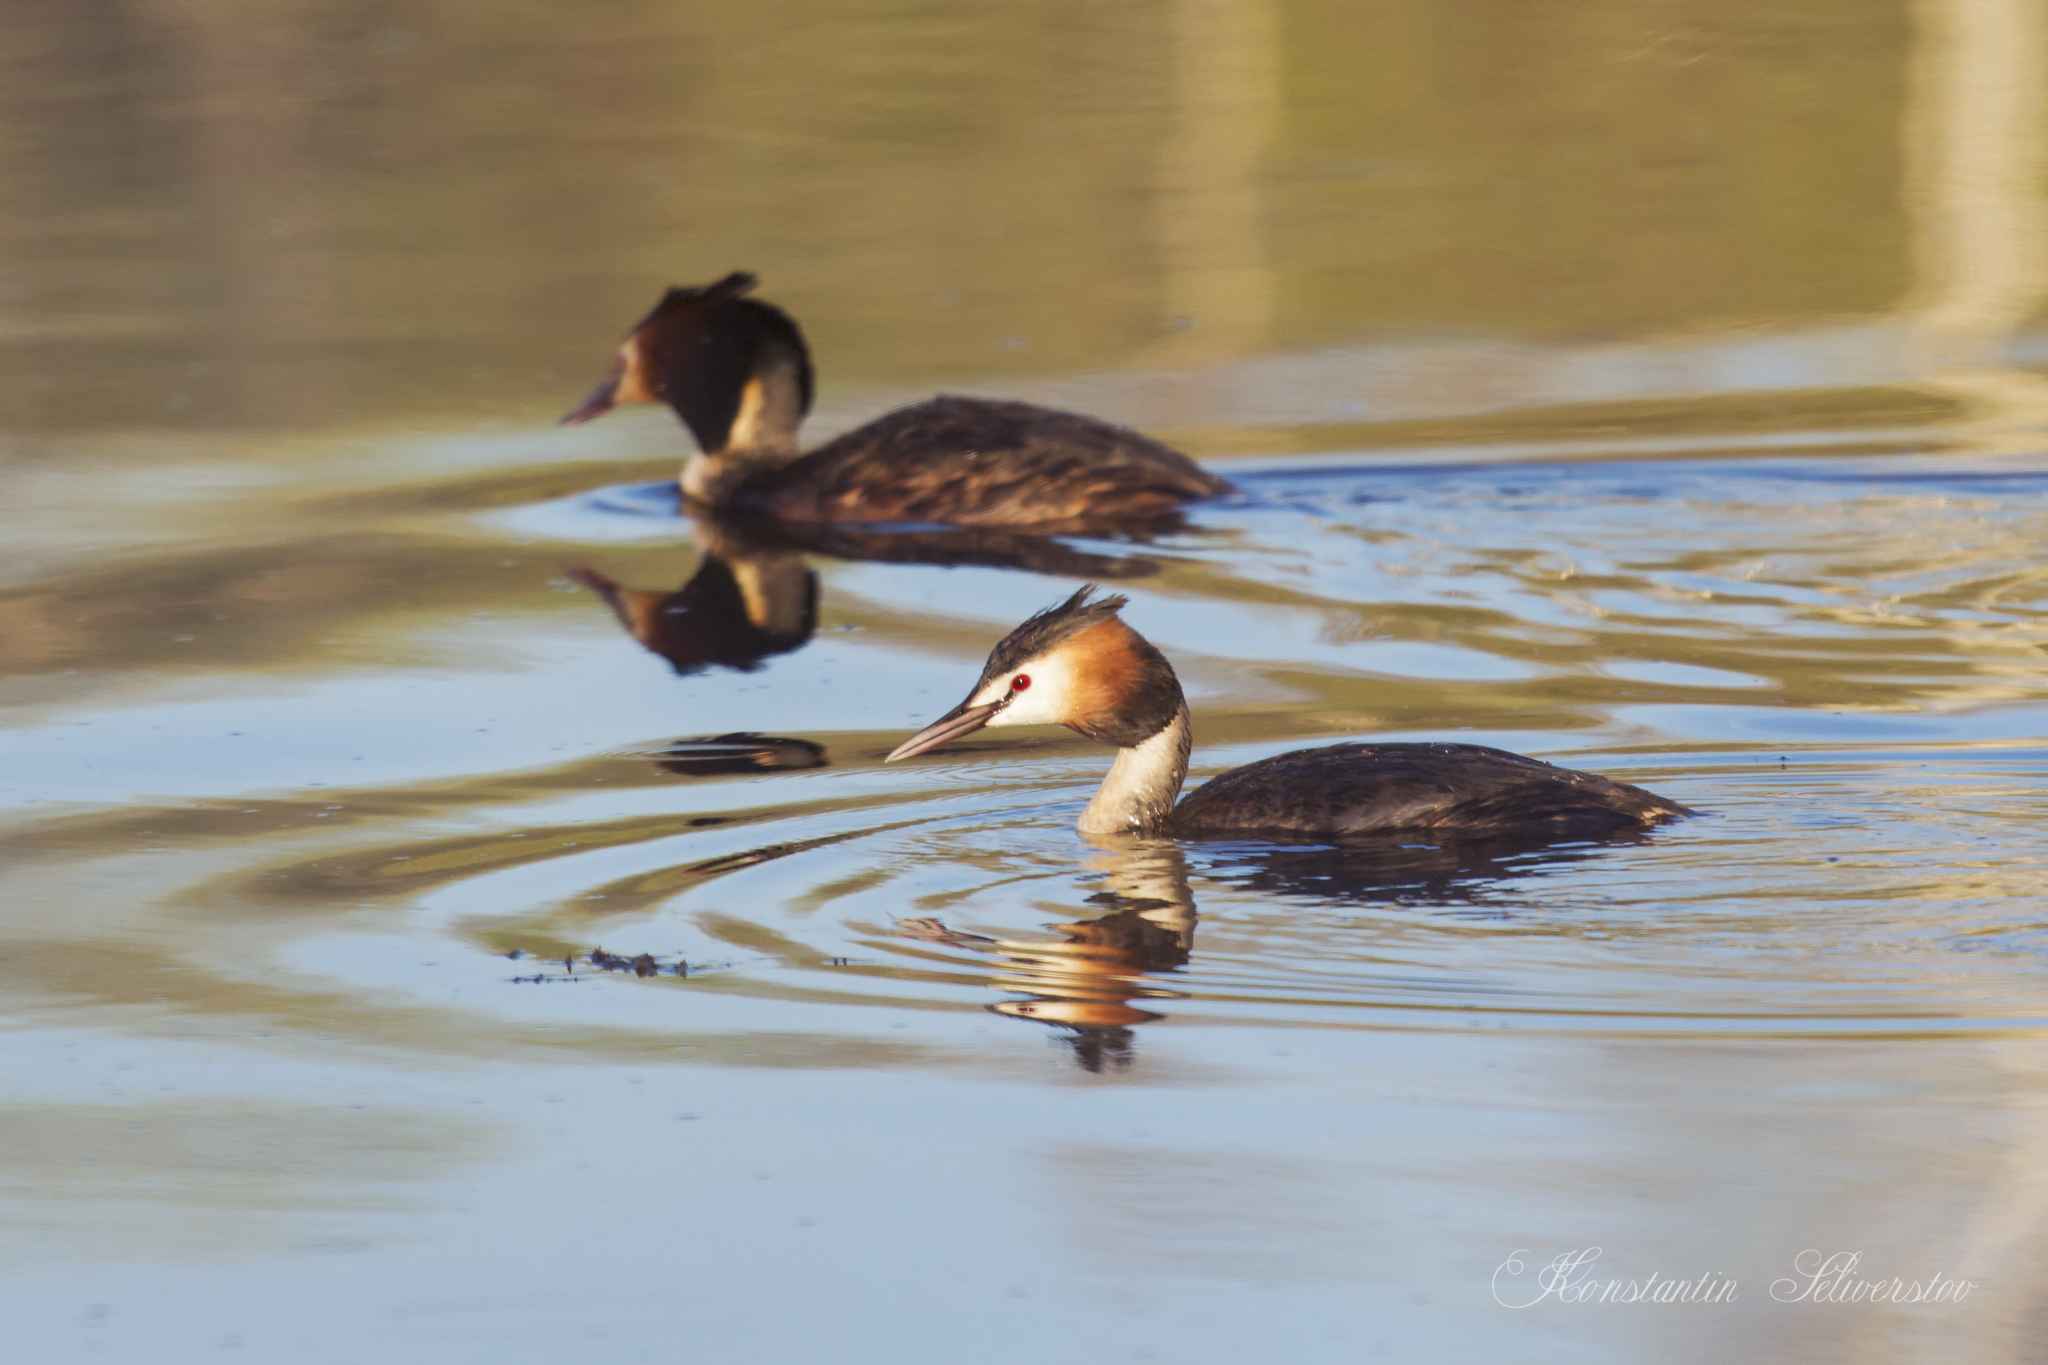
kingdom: Animalia
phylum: Chordata
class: Aves
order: Podicipediformes
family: Podicipedidae
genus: Podiceps
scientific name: Podiceps cristatus
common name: Great crested grebe
